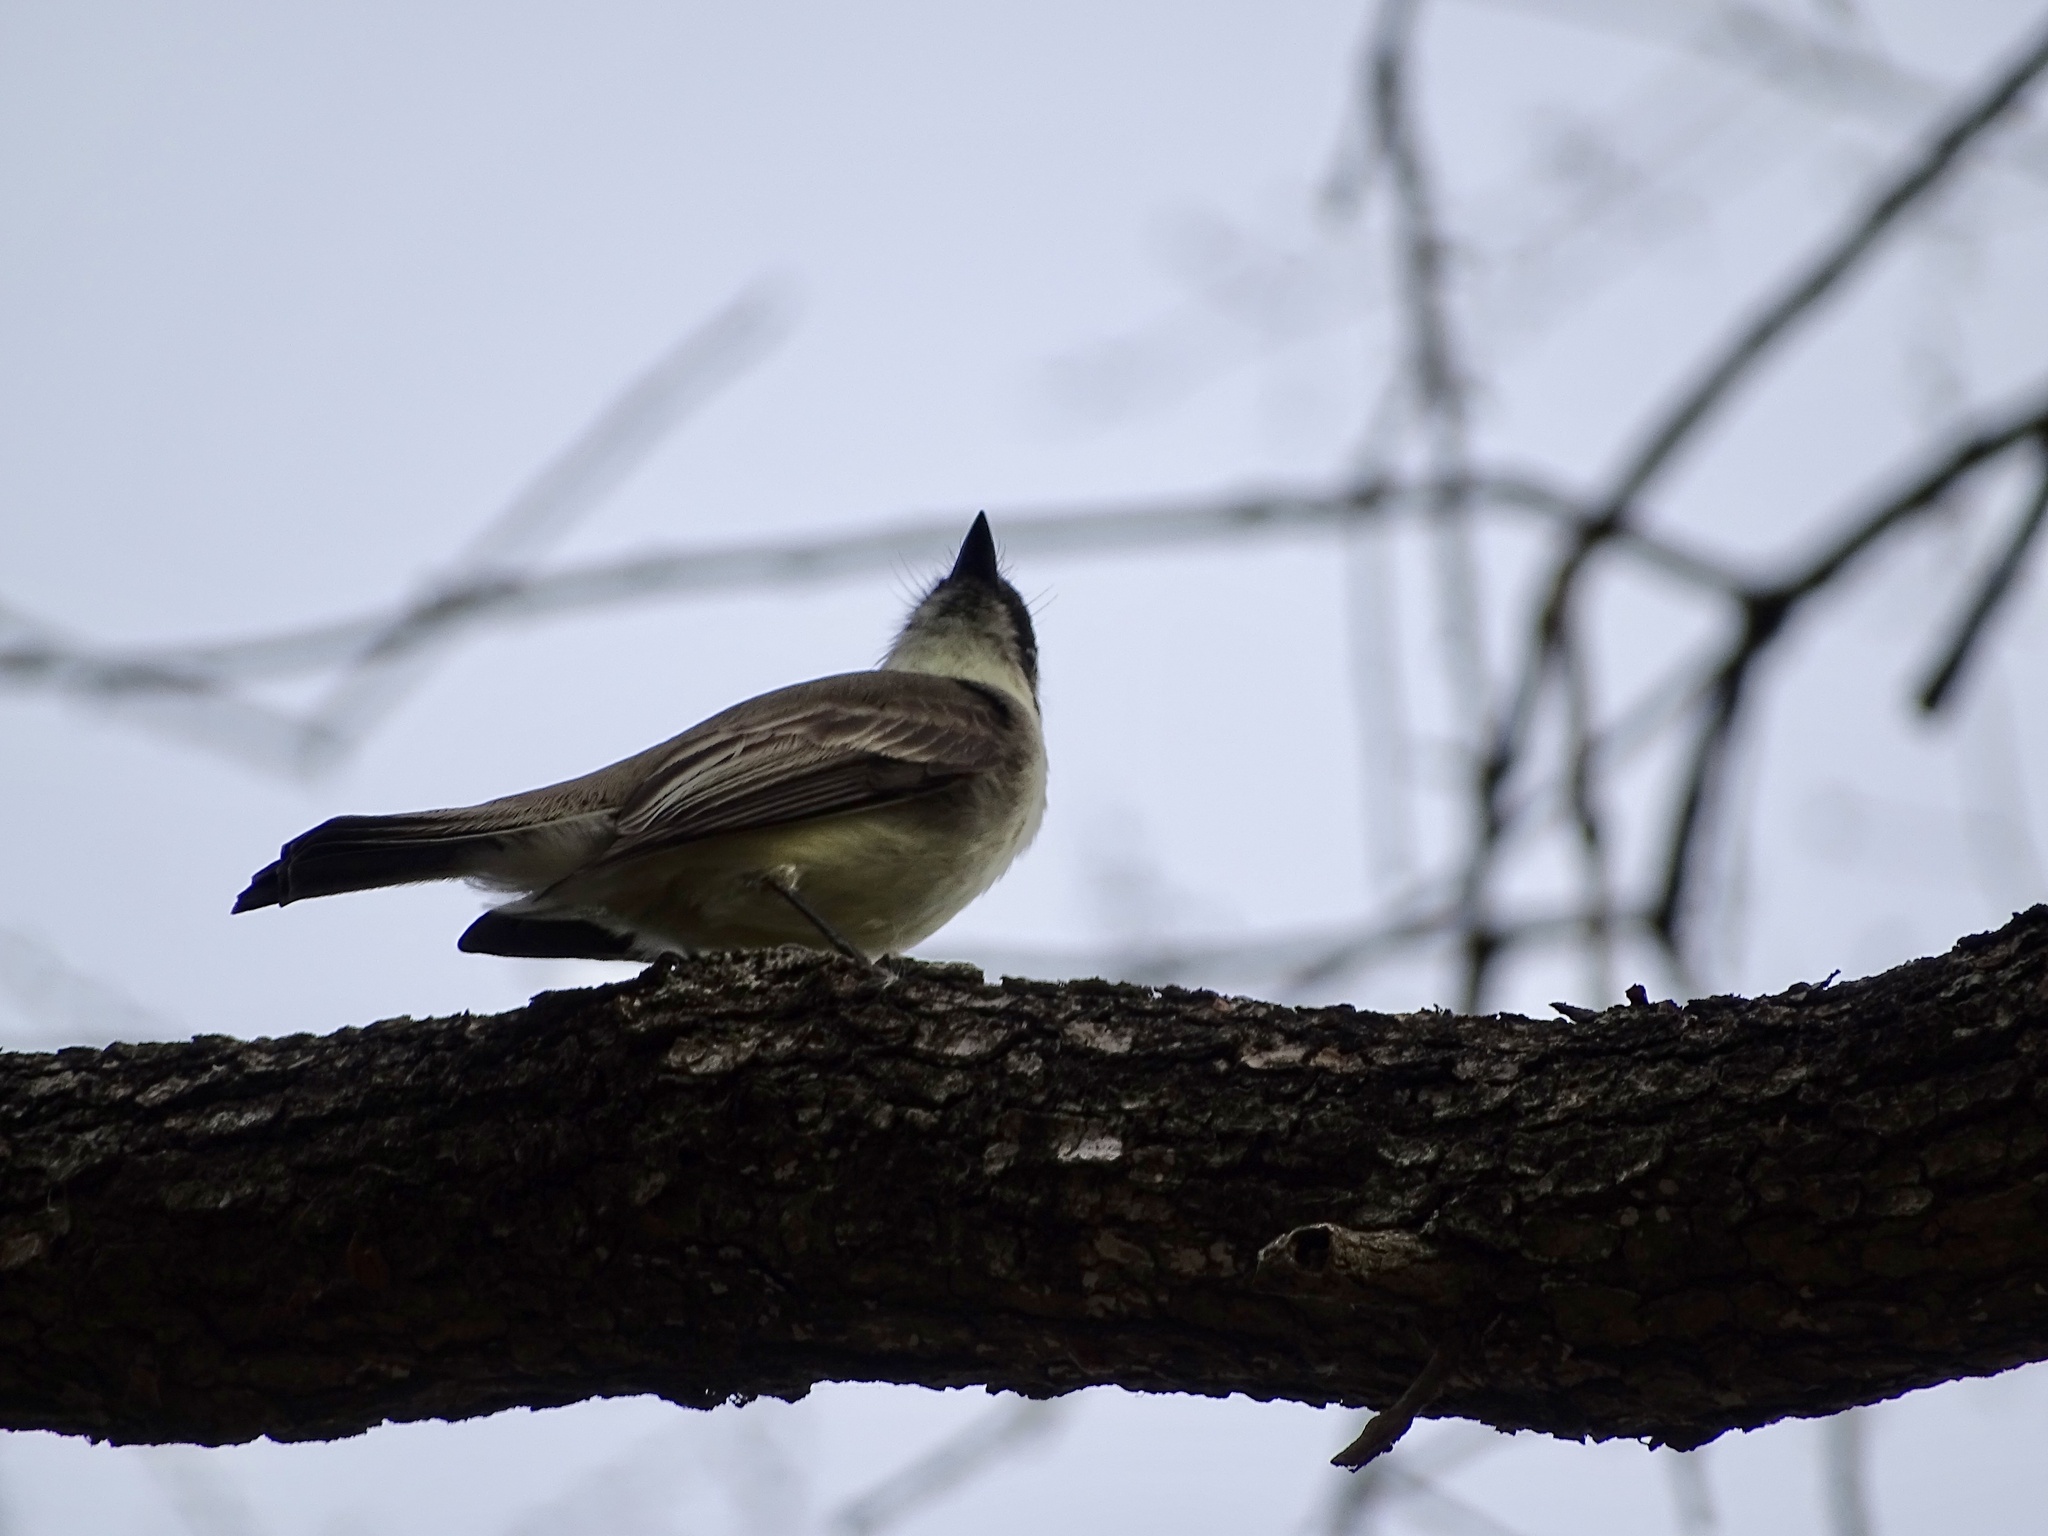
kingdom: Animalia
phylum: Chordata
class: Aves
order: Passeriformes
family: Tyrannidae
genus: Sayornis
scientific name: Sayornis phoebe
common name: Eastern phoebe
